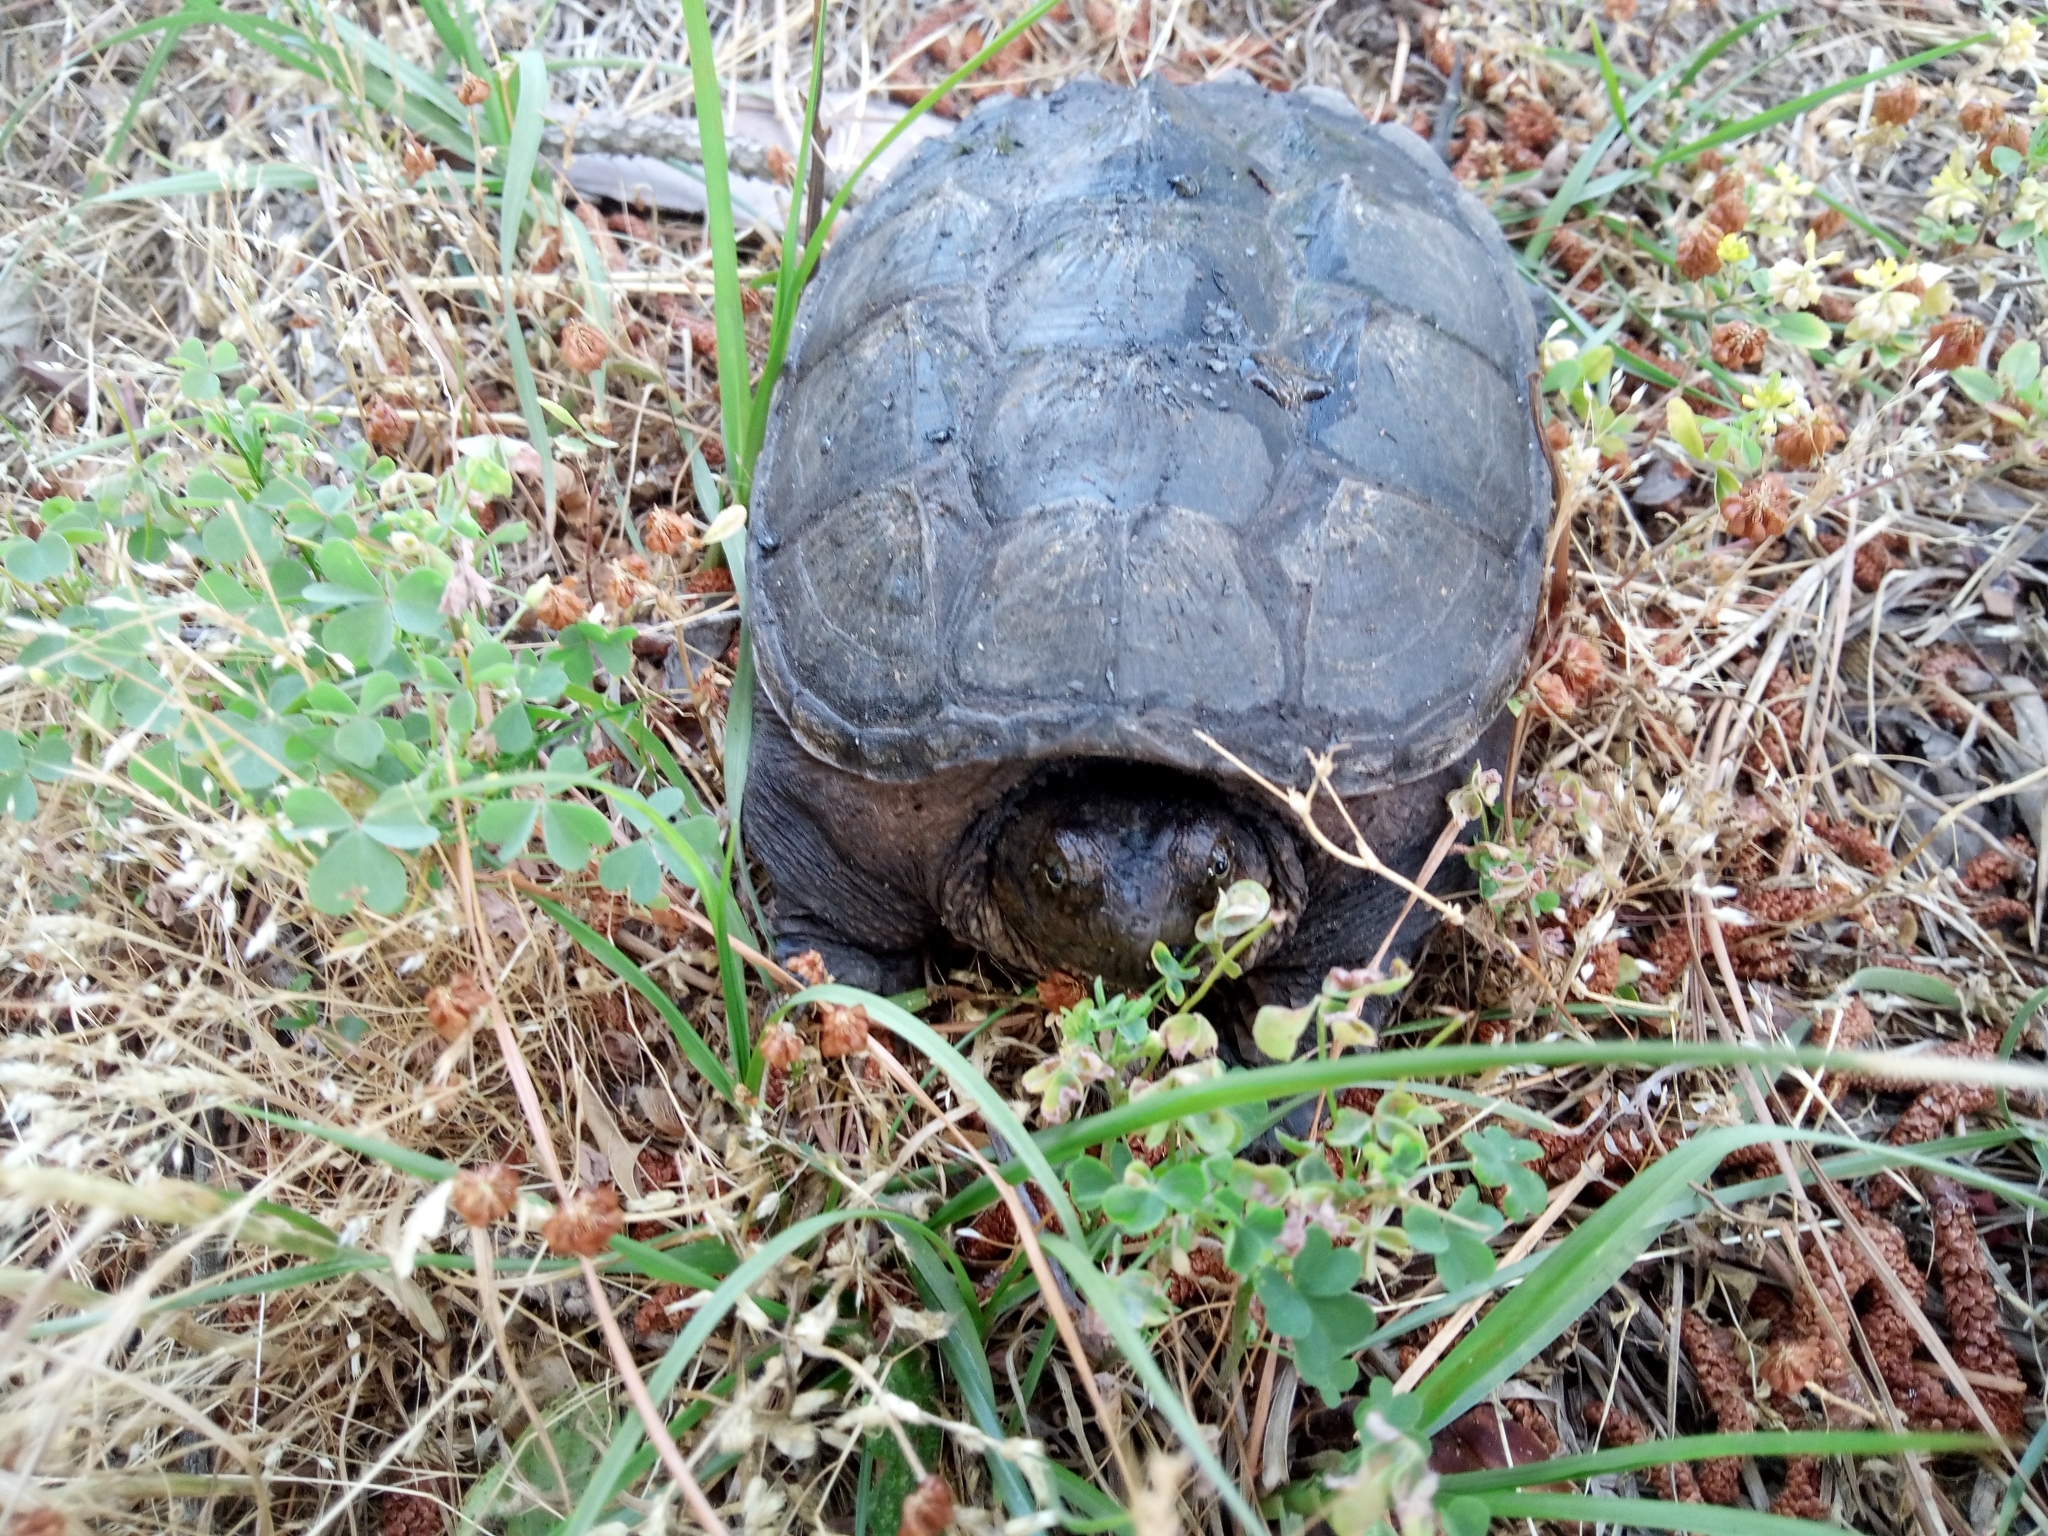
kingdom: Animalia
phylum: Chordata
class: Testudines
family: Chelydridae
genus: Chelydra
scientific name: Chelydra serpentina
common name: Common snapping turtle
